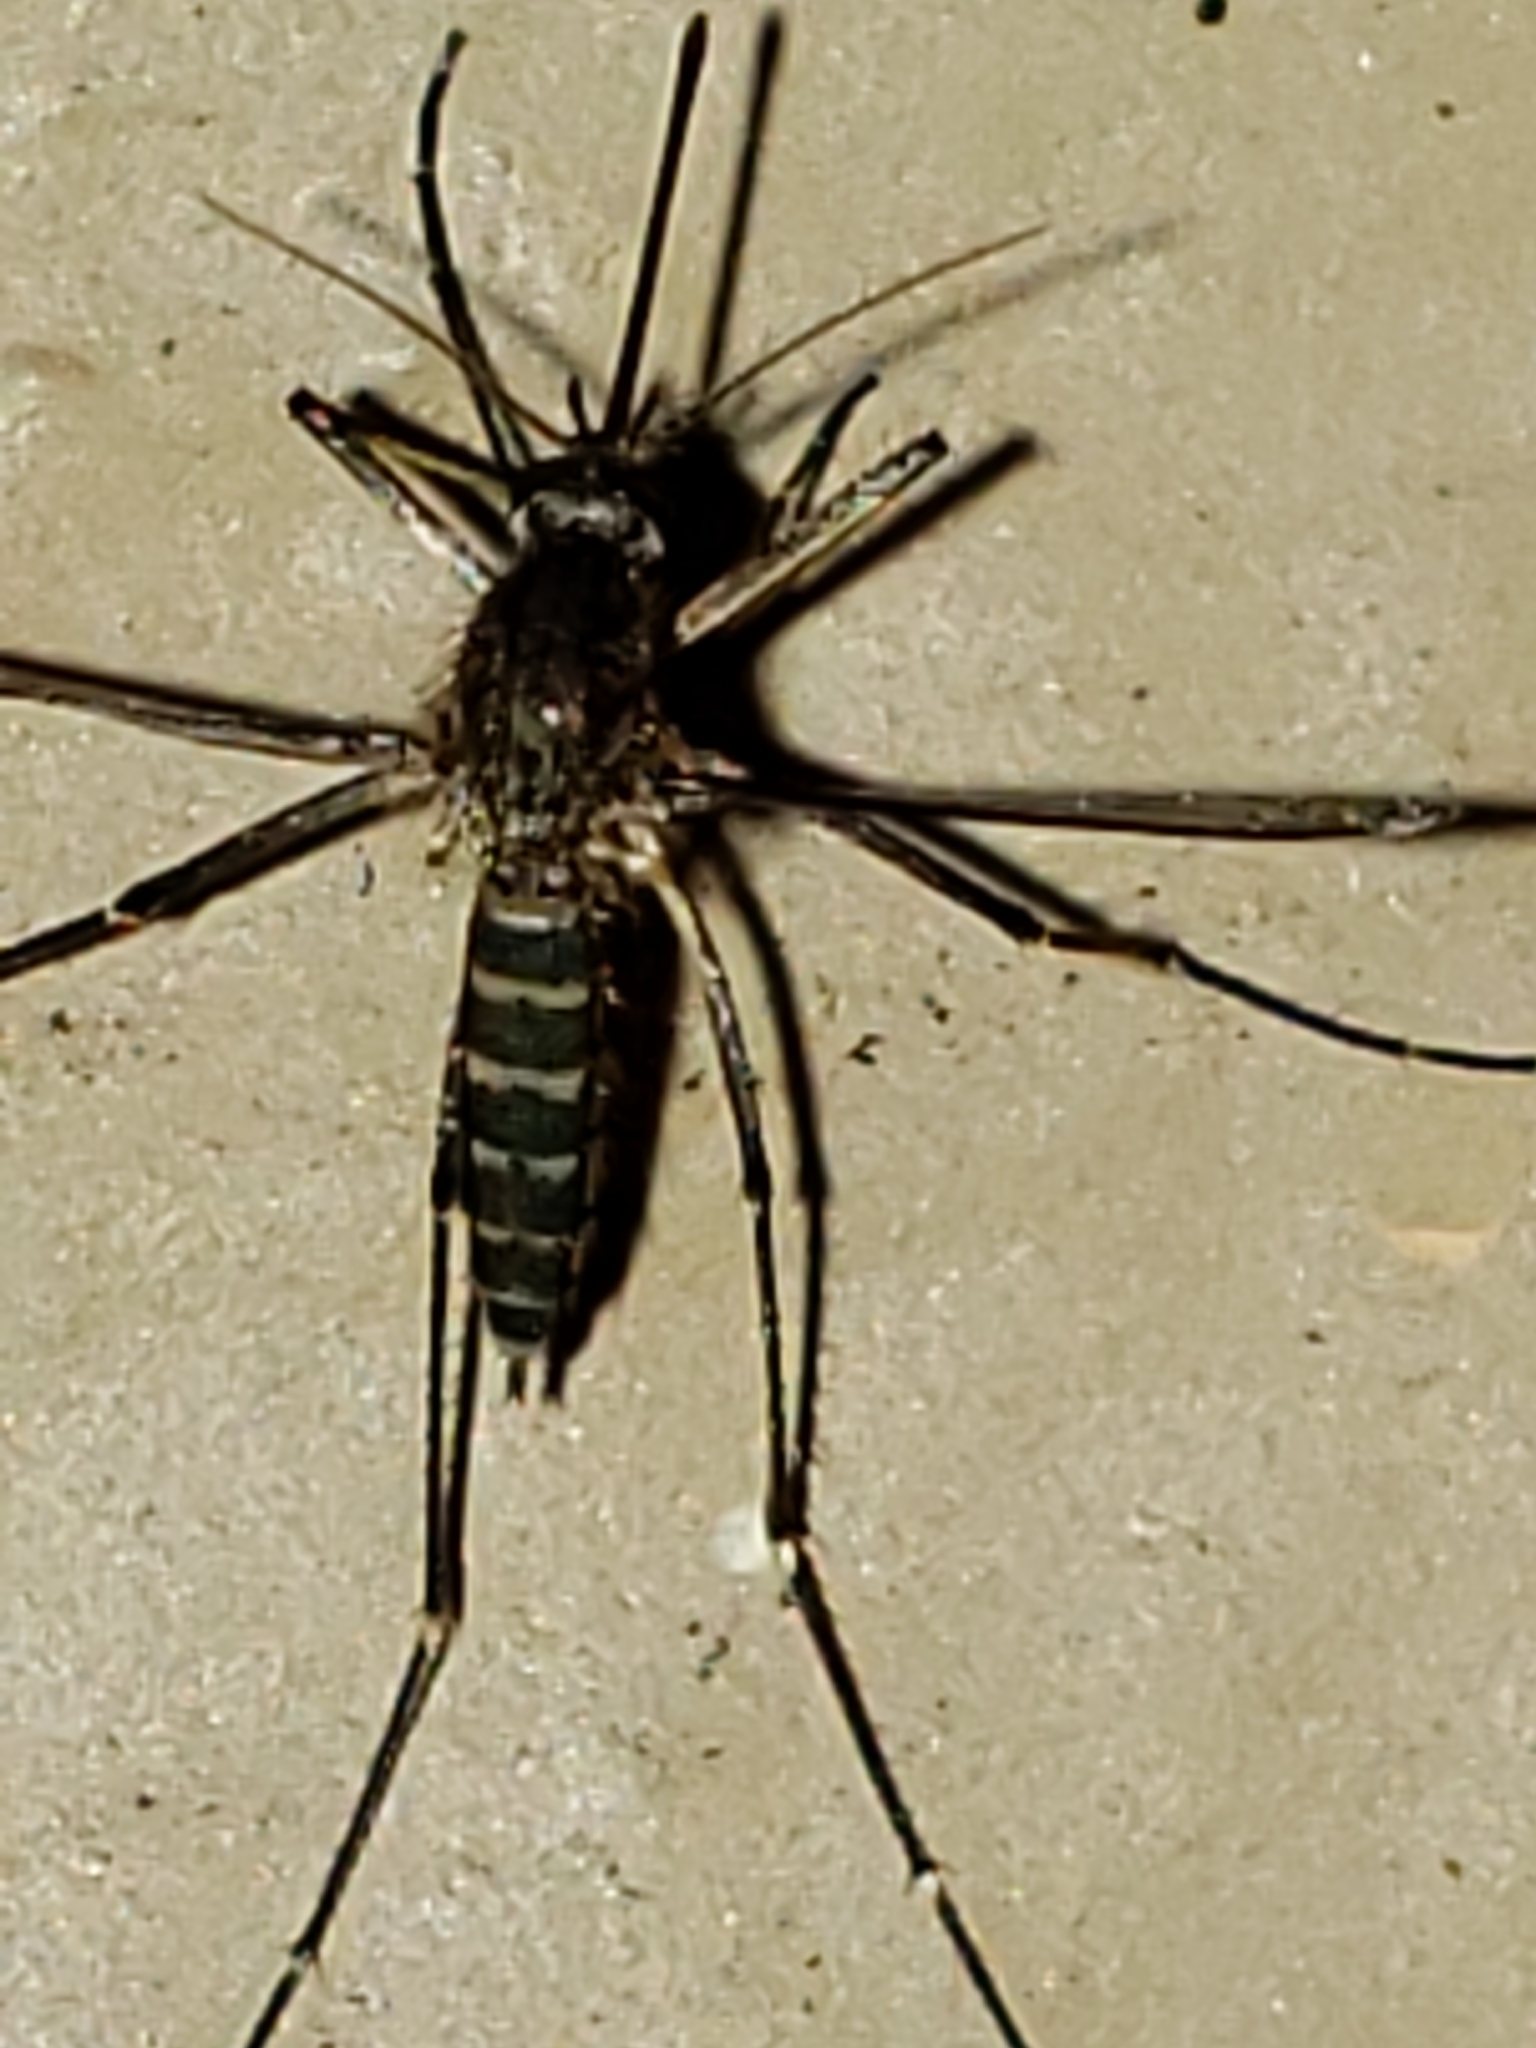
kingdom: Animalia
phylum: Arthropoda
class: Insecta
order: Diptera
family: Culicidae
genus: Aedes
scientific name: Aedes vexans
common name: Inland floodwater mosquito
